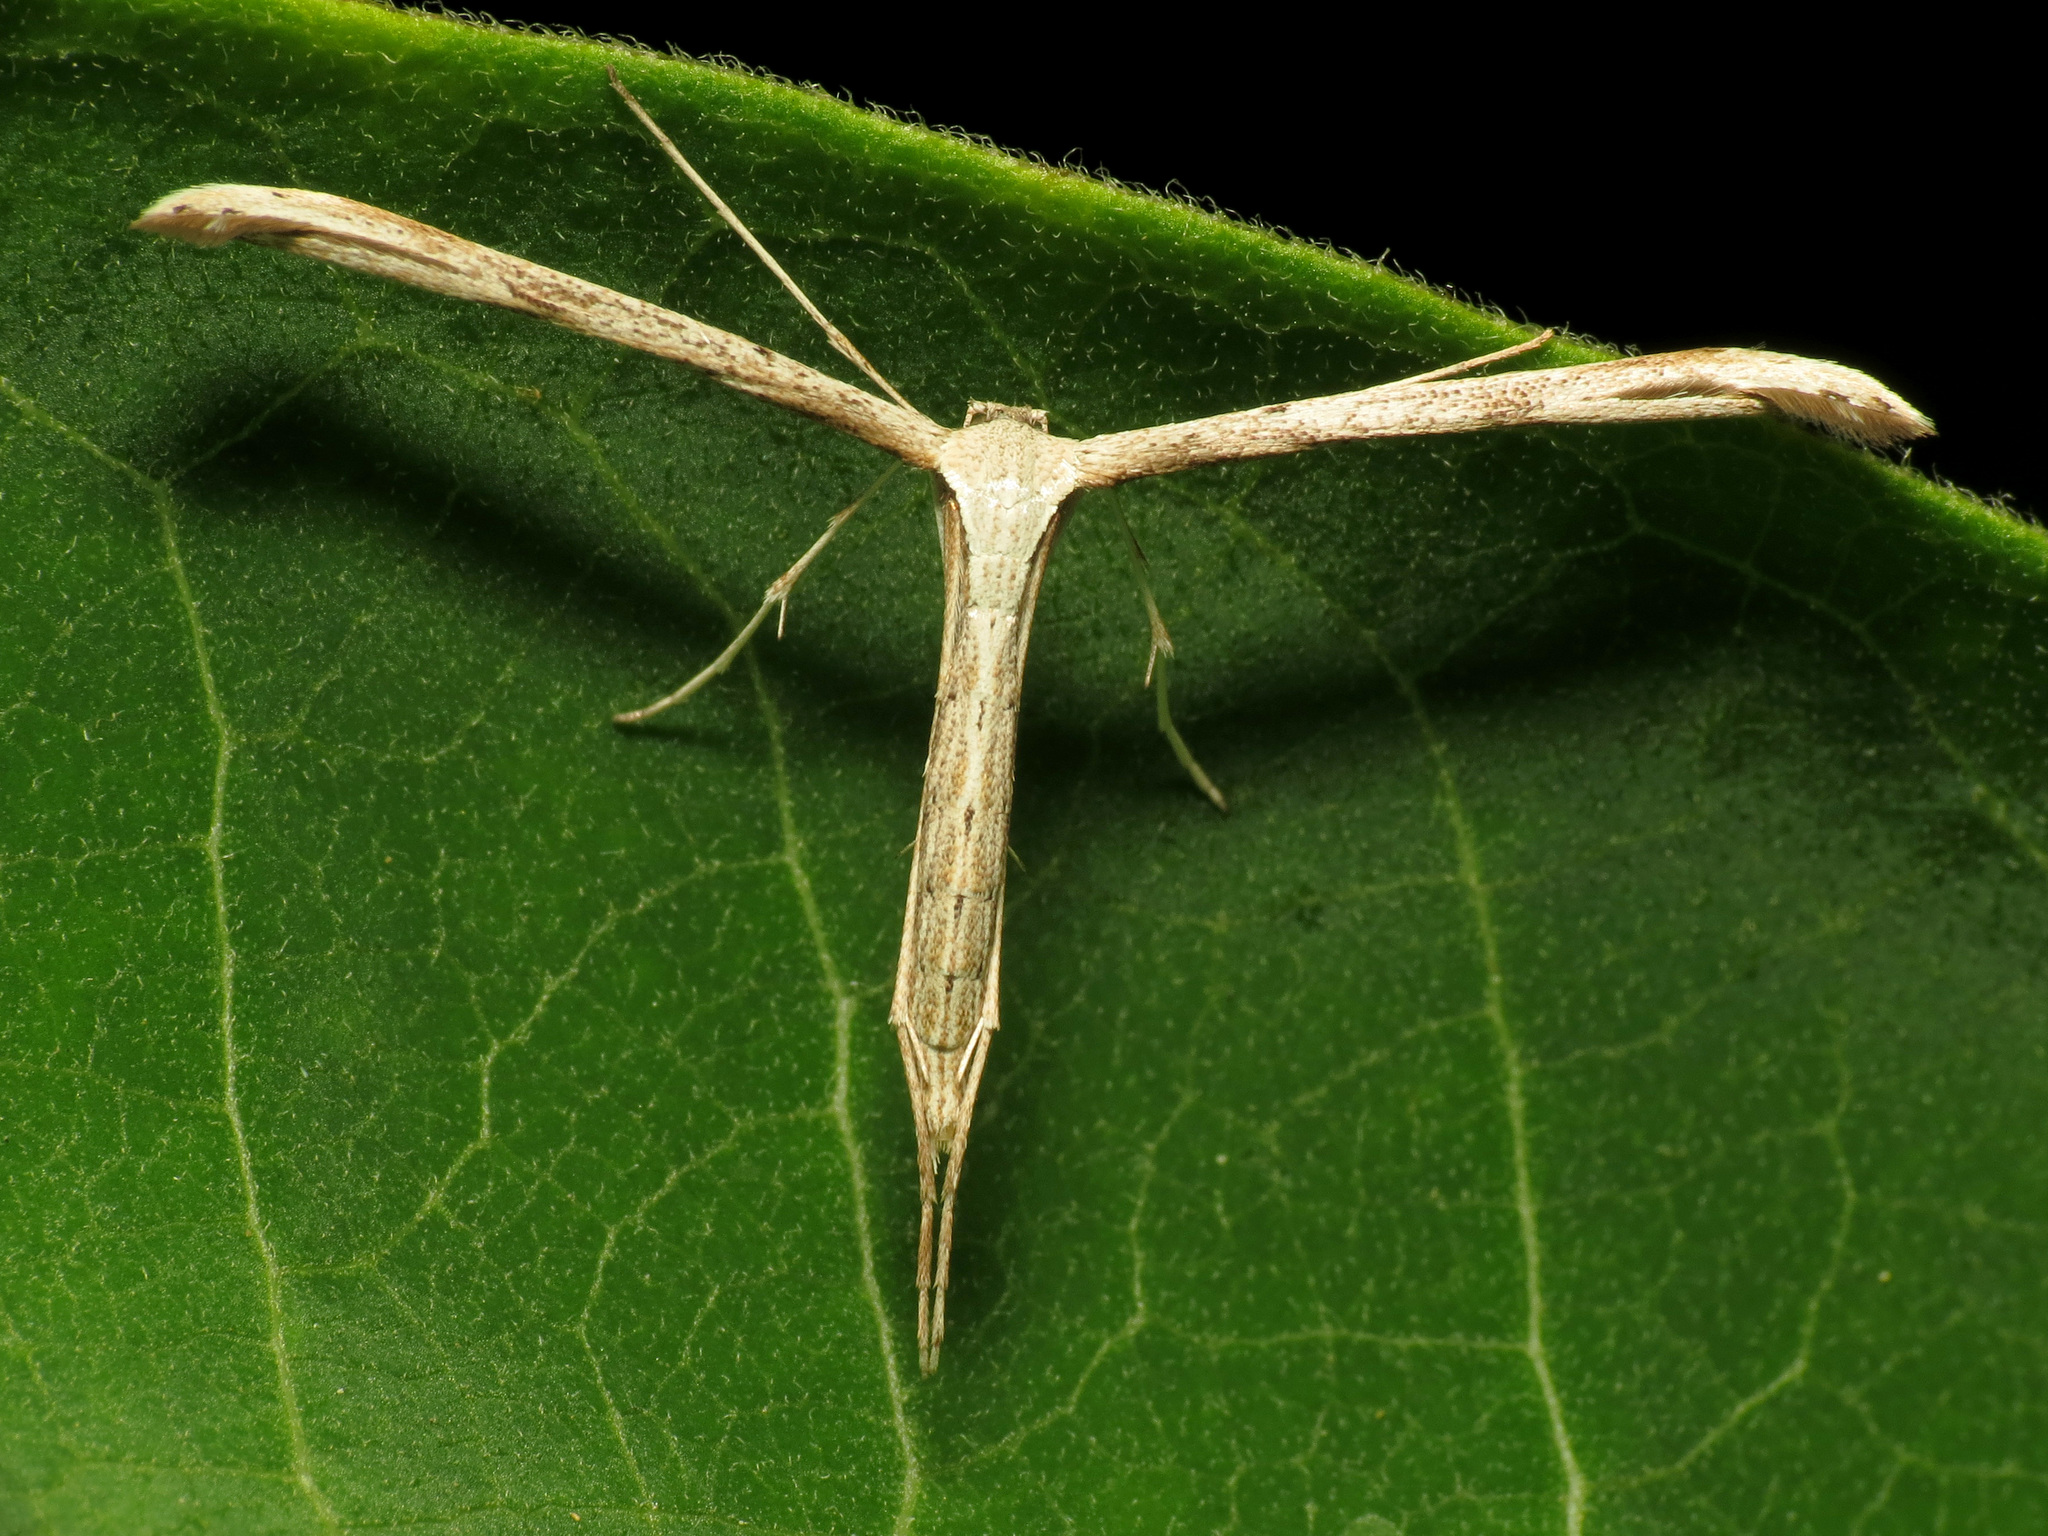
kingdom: Animalia
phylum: Arthropoda
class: Insecta
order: Lepidoptera
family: Pterophoridae
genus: Emmelina
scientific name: Emmelina monodactyla
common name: Common plume
